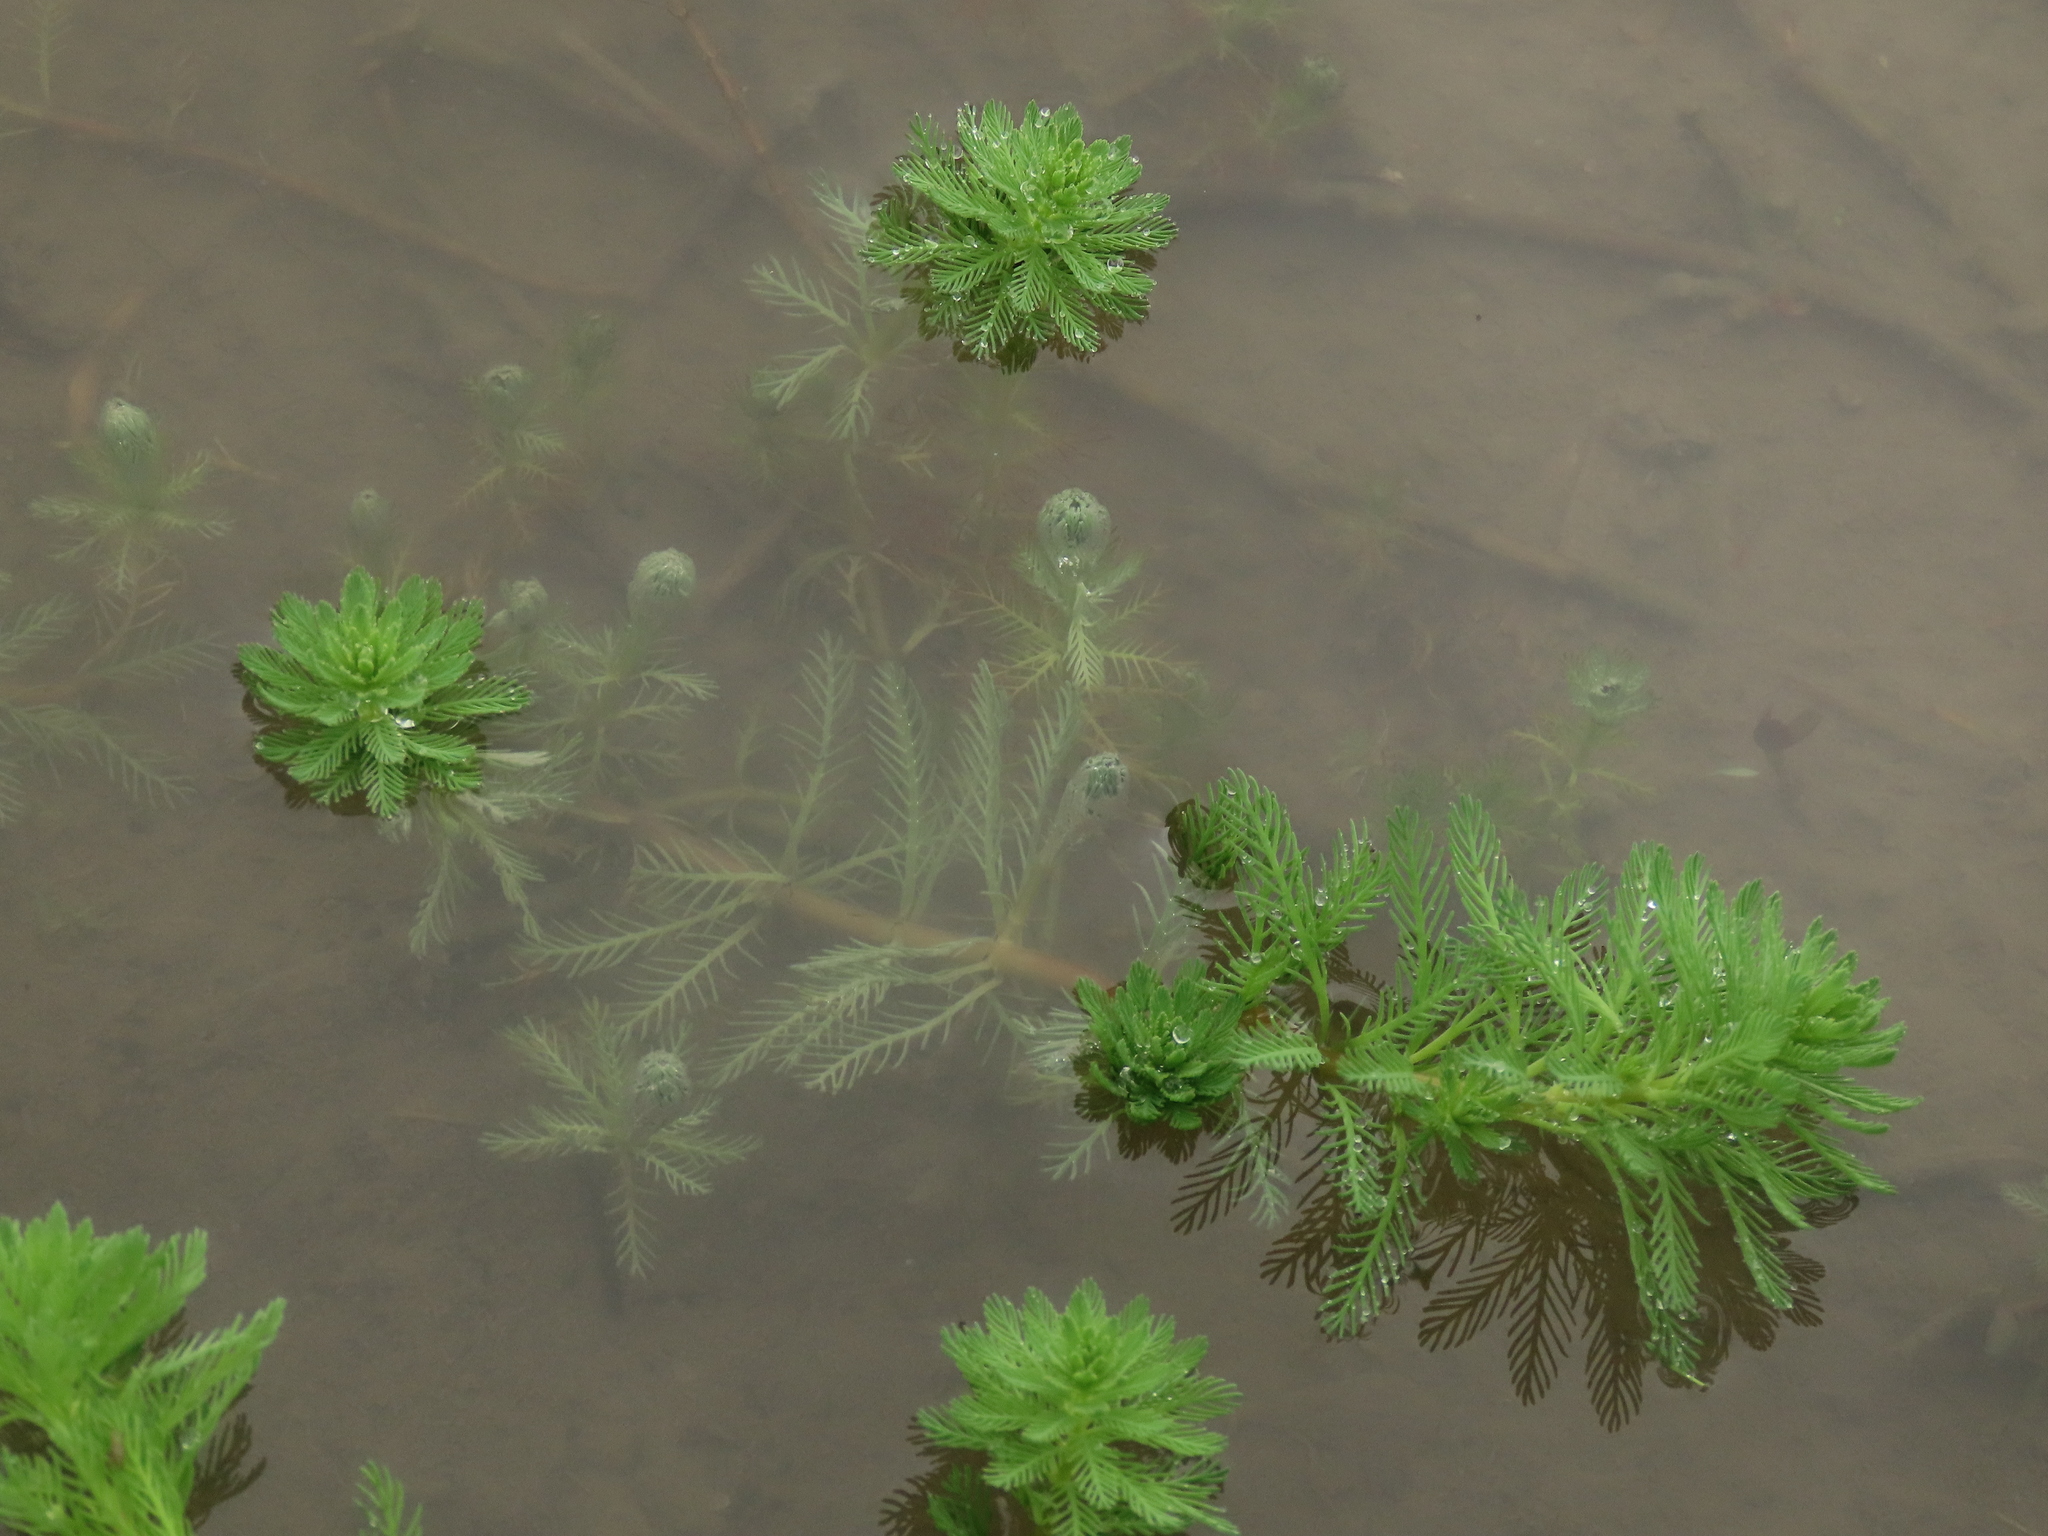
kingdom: Plantae
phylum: Tracheophyta
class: Magnoliopsida
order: Saxifragales
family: Haloragaceae
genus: Myriophyllum
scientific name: Myriophyllum aquaticum
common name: Parrot's feather
